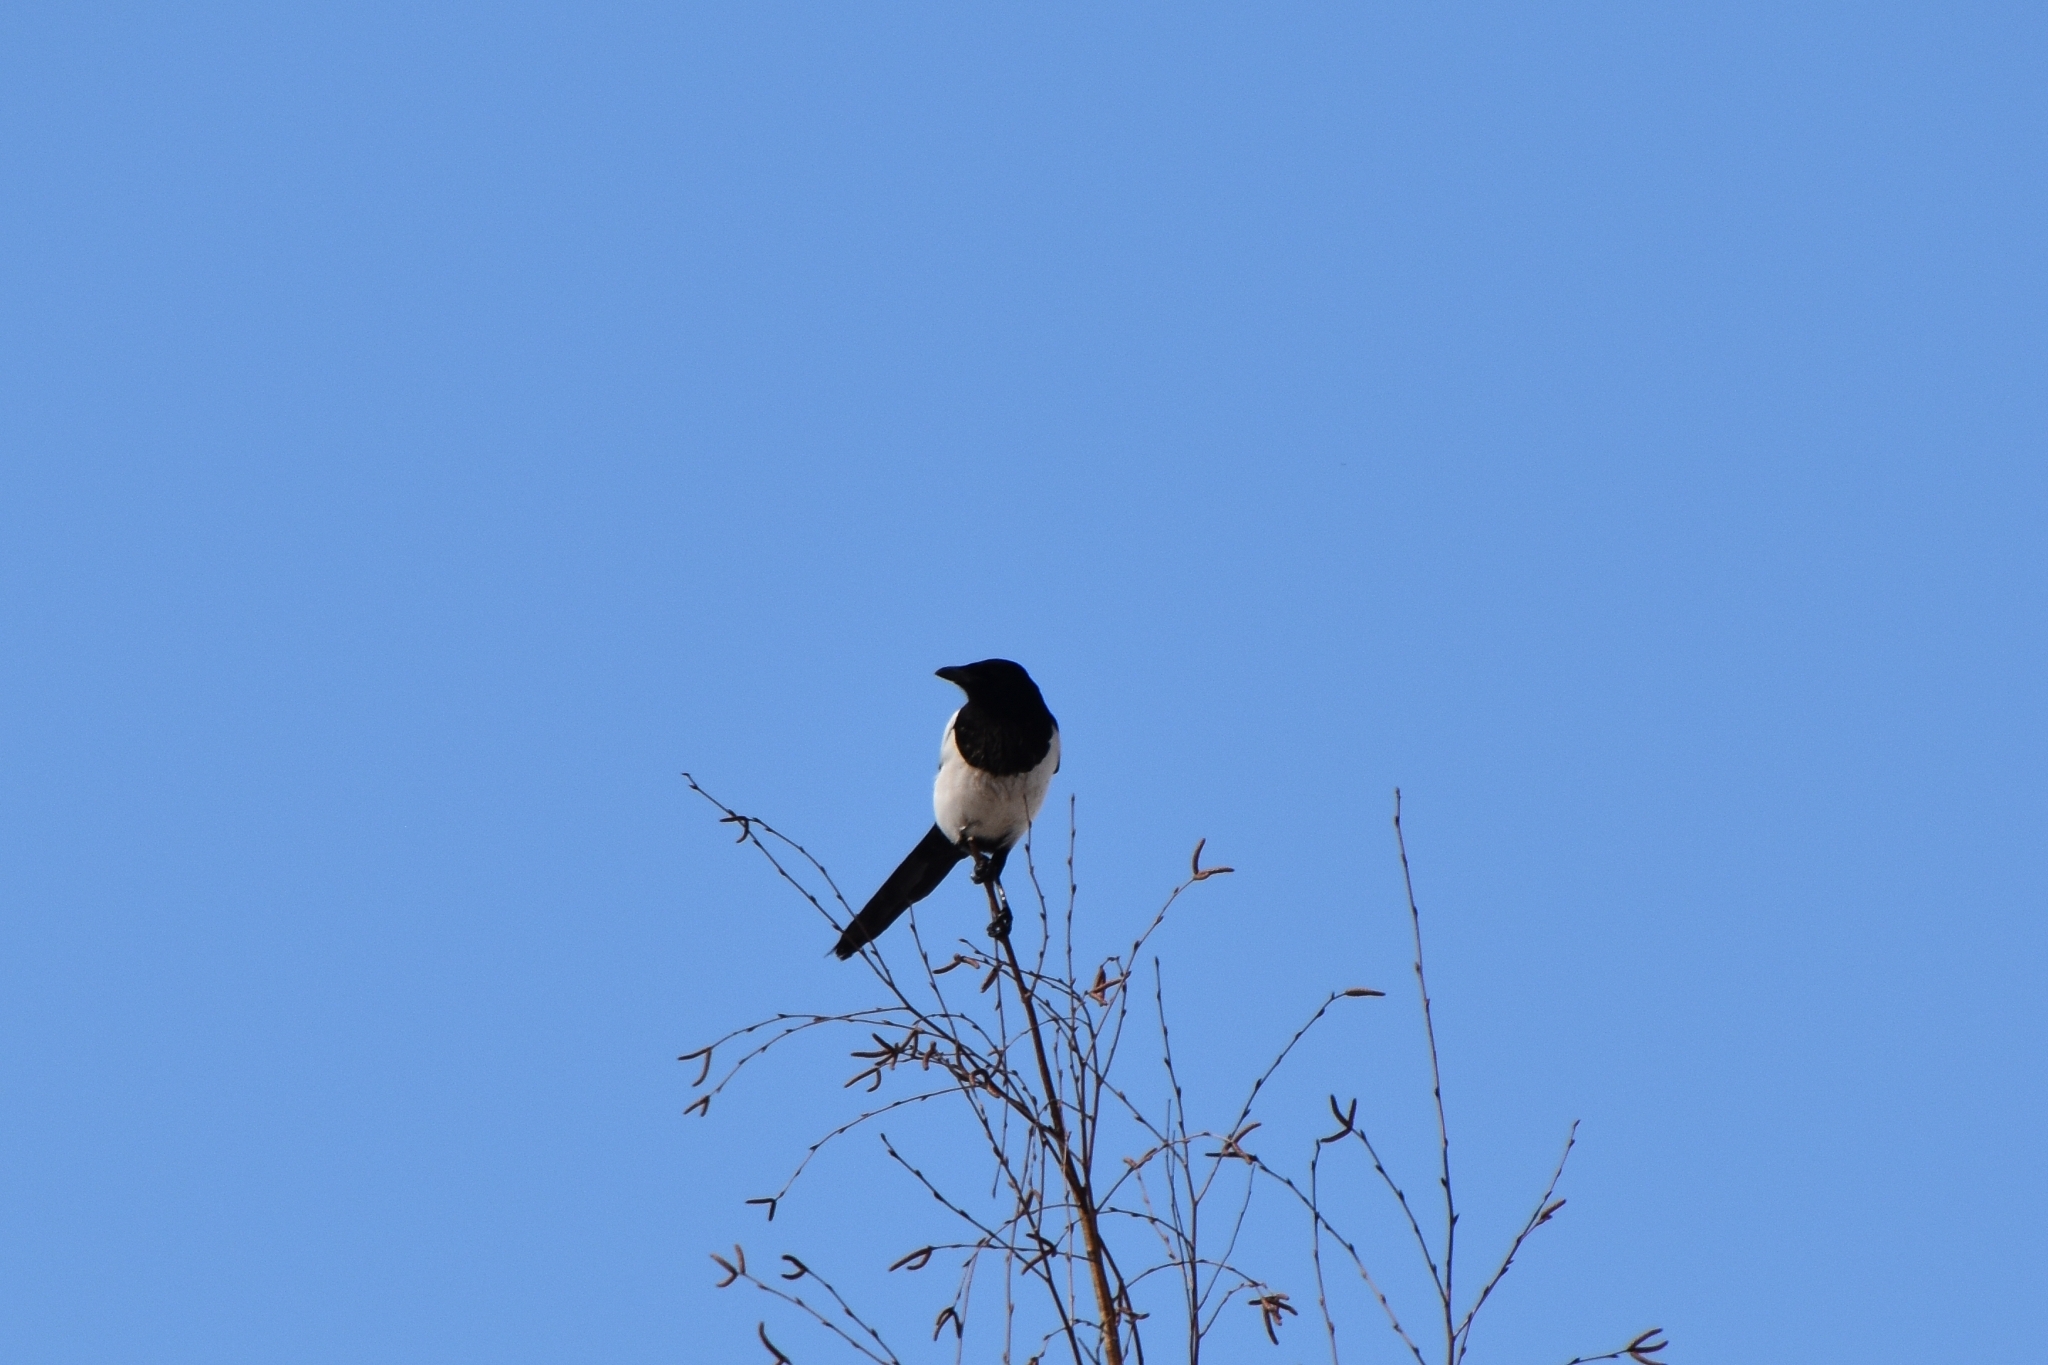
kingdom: Animalia
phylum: Chordata
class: Aves
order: Passeriformes
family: Corvidae
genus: Pica
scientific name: Pica pica
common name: Eurasian magpie
